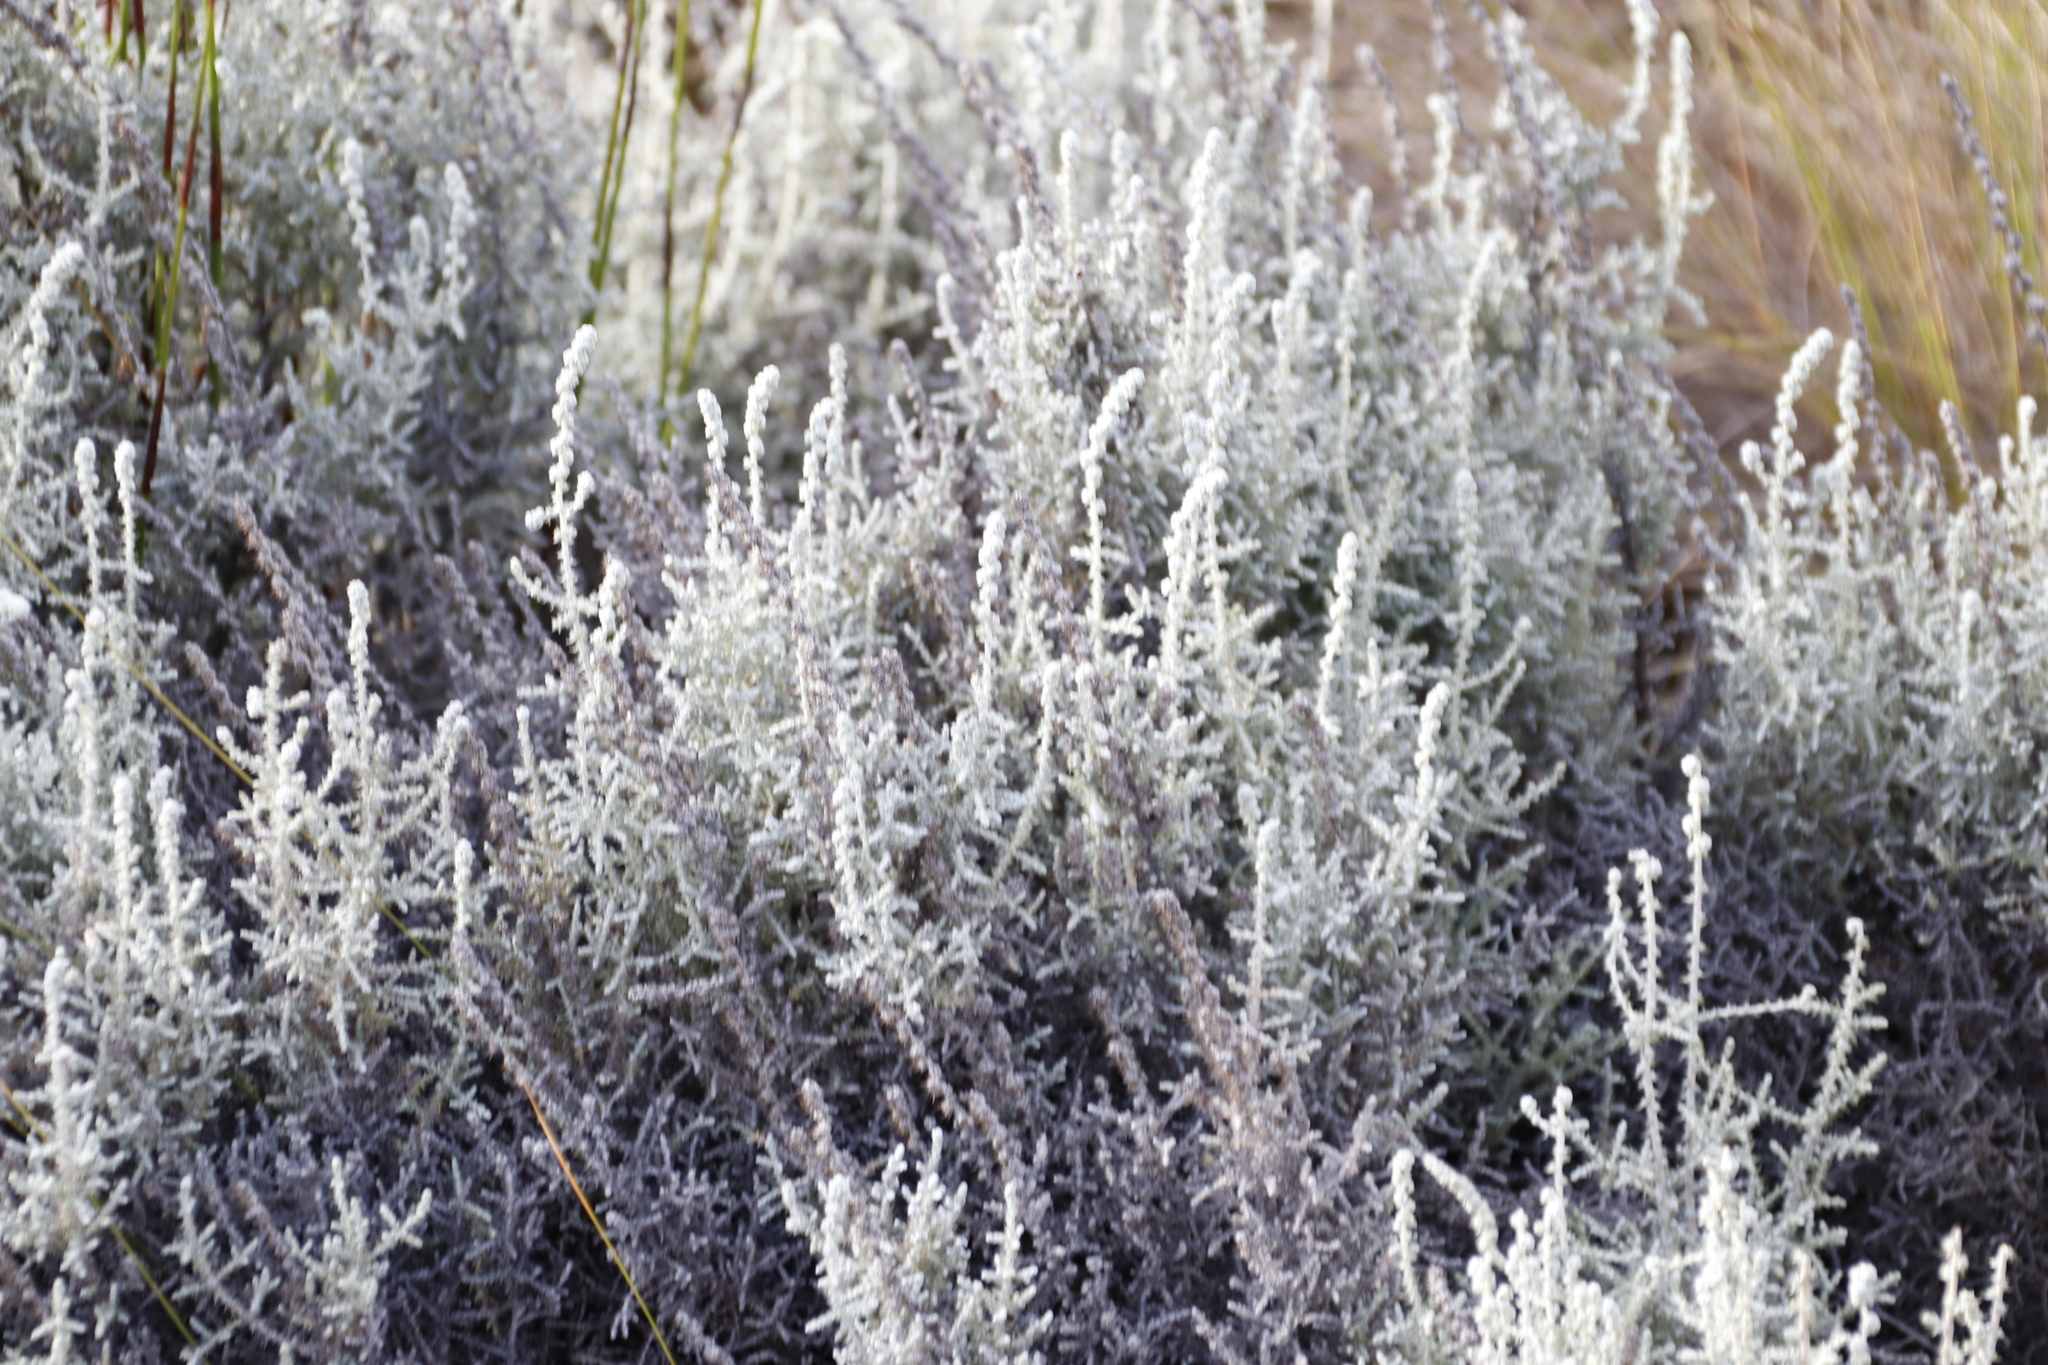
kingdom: Plantae
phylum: Tracheophyta
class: Magnoliopsida
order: Asterales
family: Asteraceae
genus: Seriphium
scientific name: Seriphium plumosum
